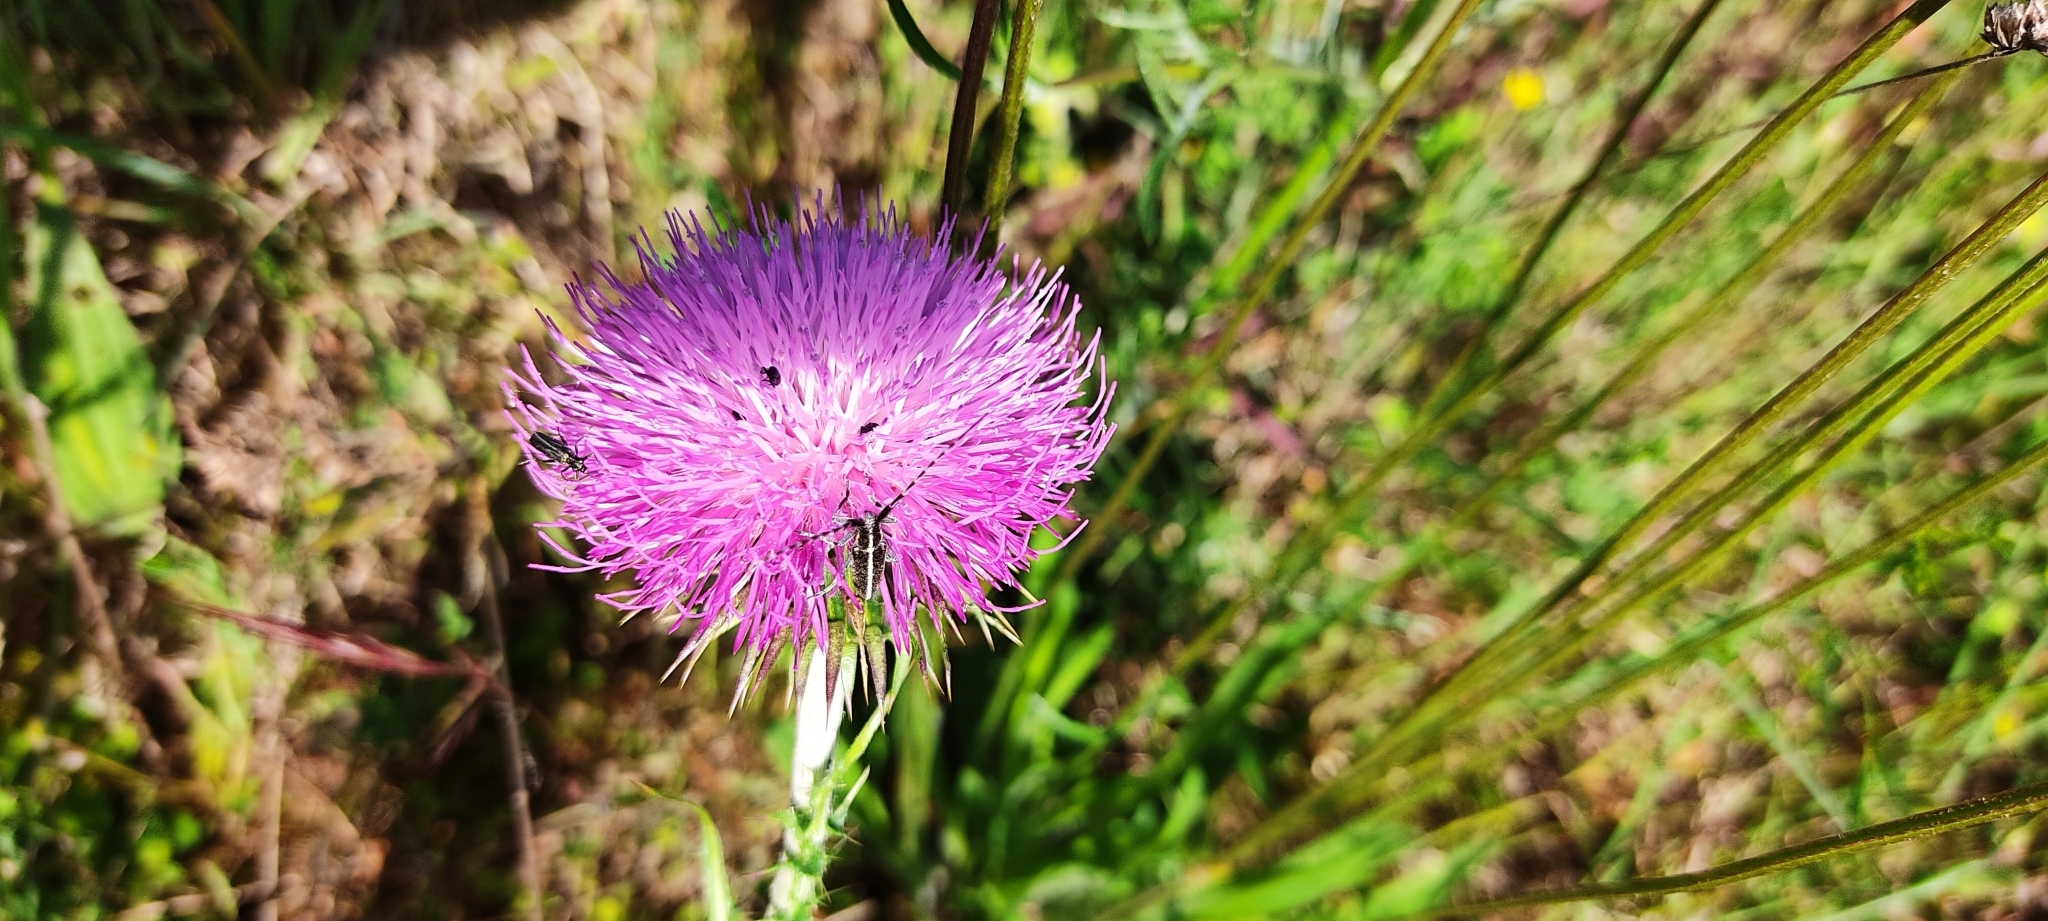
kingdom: Animalia
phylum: Arthropoda
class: Insecta
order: Coleoptera
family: Cerambycidae
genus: Agapanthia
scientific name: Agapanthia cardui
